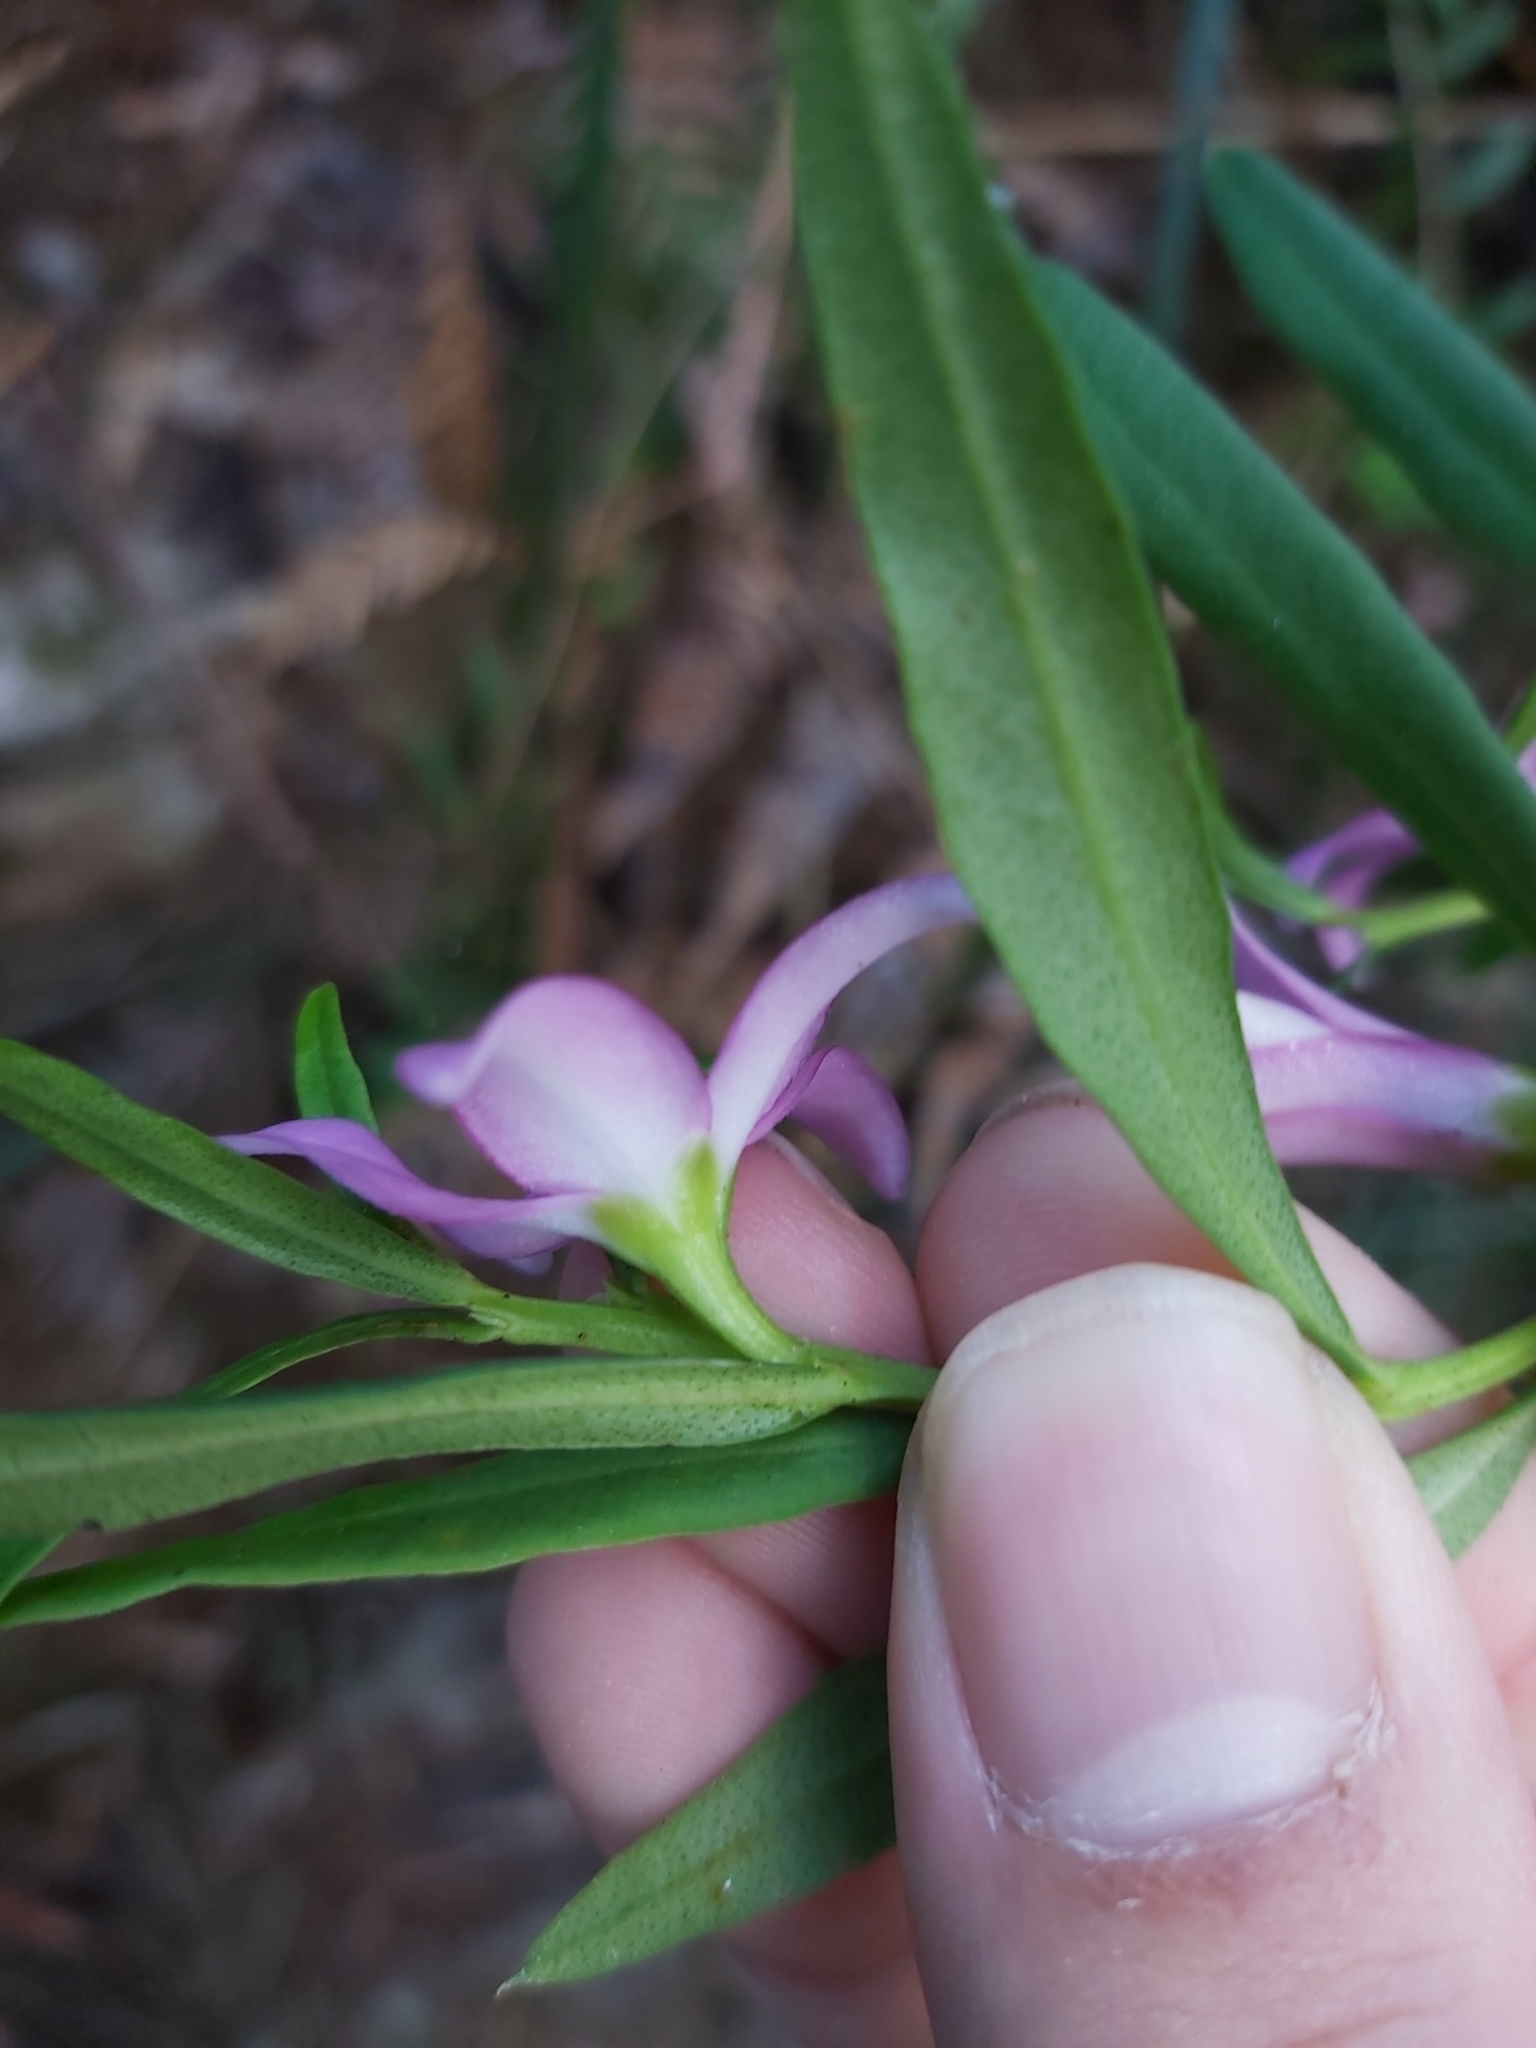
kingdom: Plantae
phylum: Tracheophyta
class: Magnoliopsida
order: Sapindales
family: Rutaceae
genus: Crowea
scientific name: Crowea saligna
